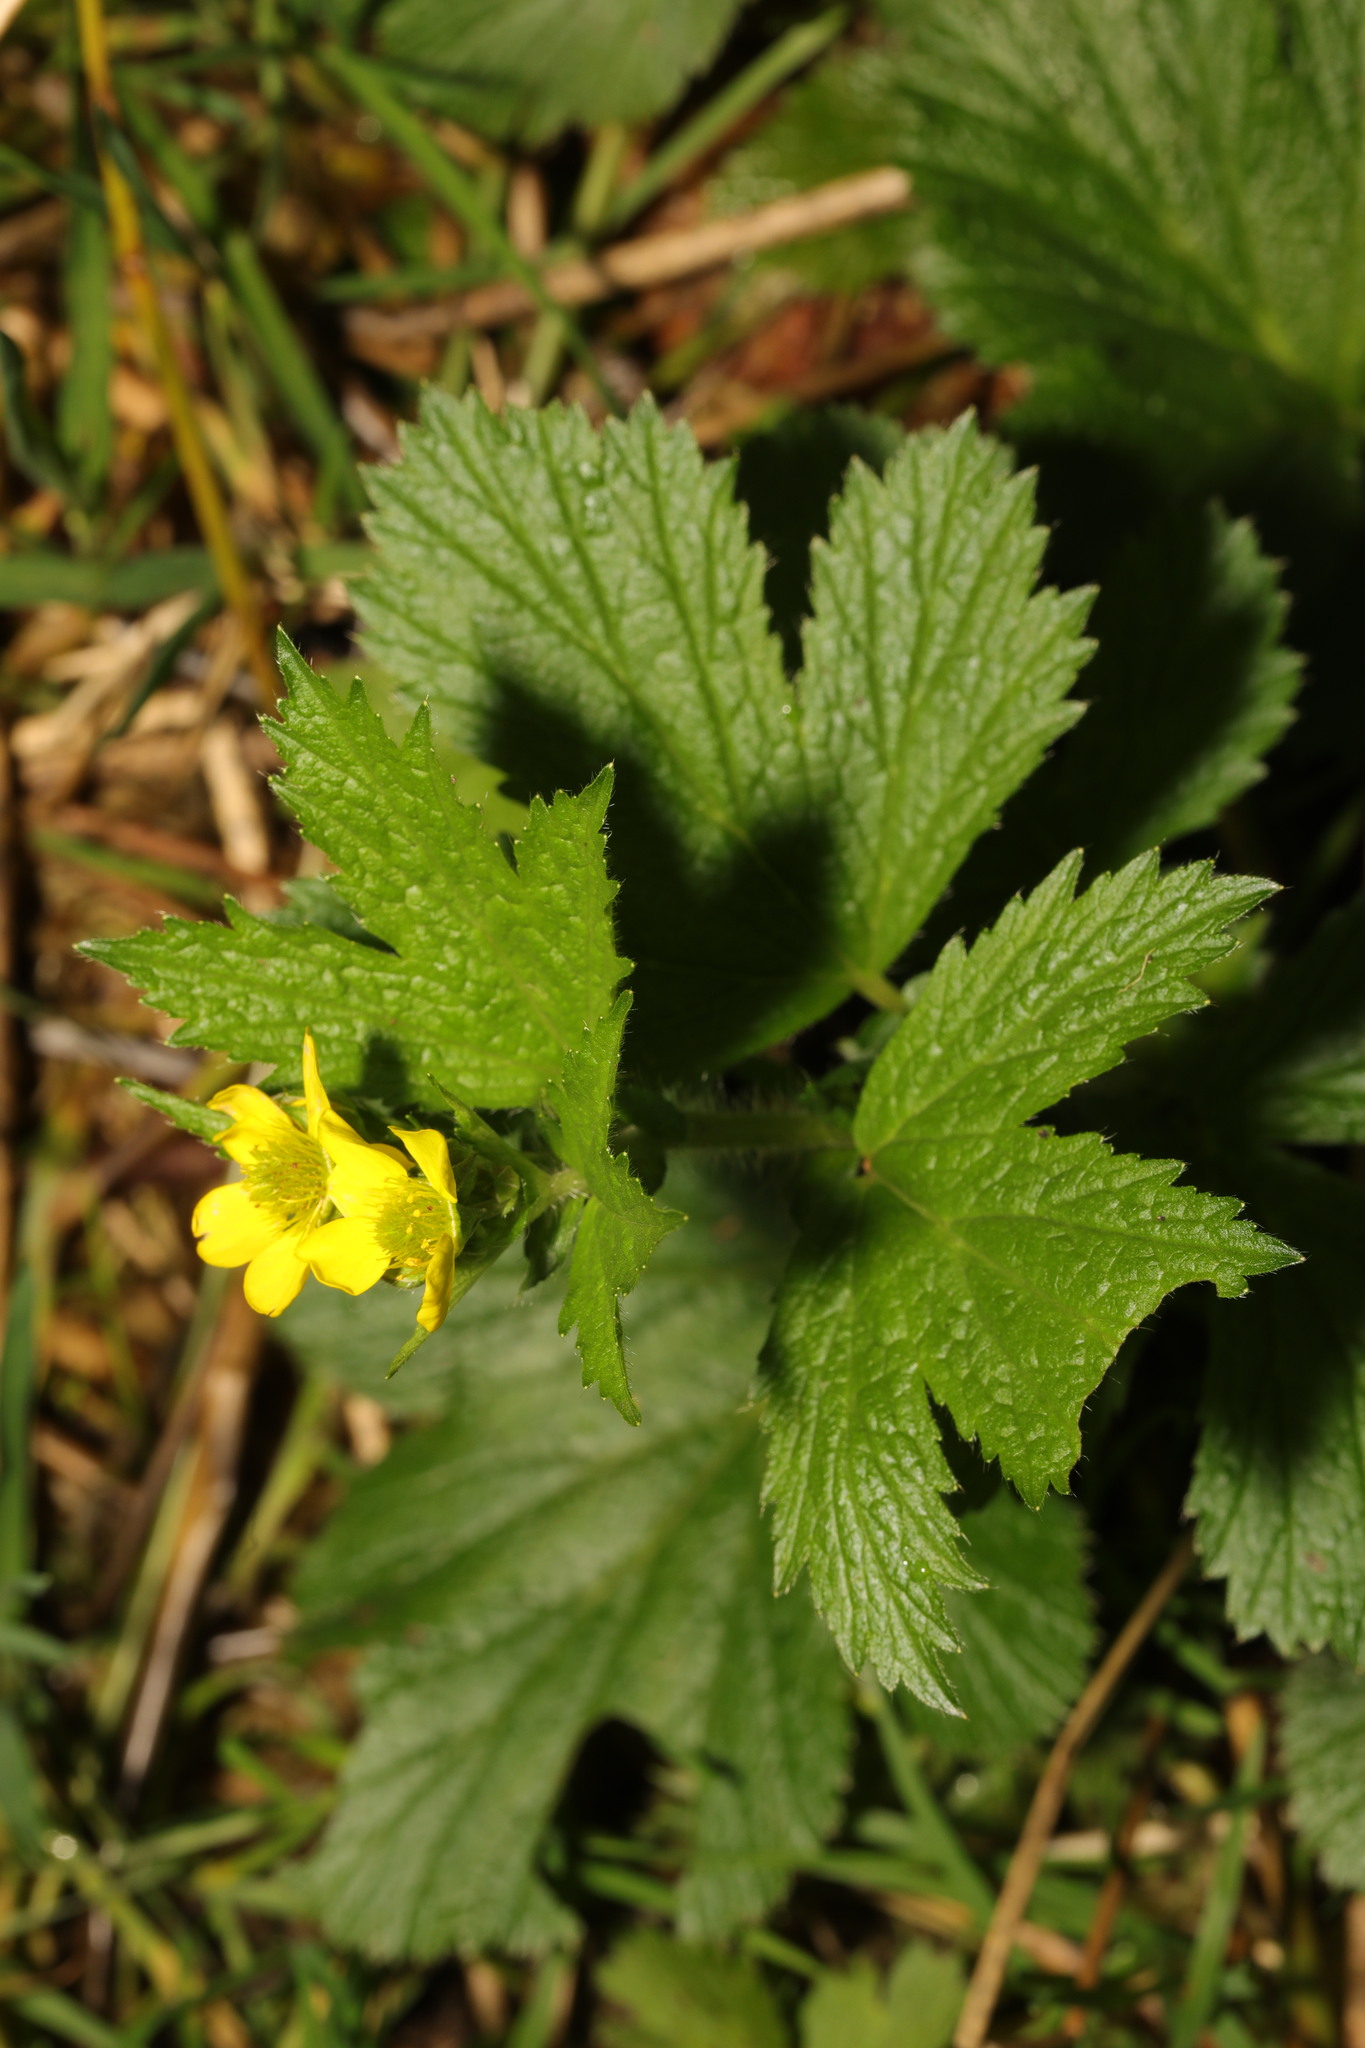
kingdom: Plantae
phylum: Tracheophyta
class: Magnoliopsida
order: Rosales
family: Rosaceae
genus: Geum
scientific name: Geum macrophyllum
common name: Large-leaved avens
